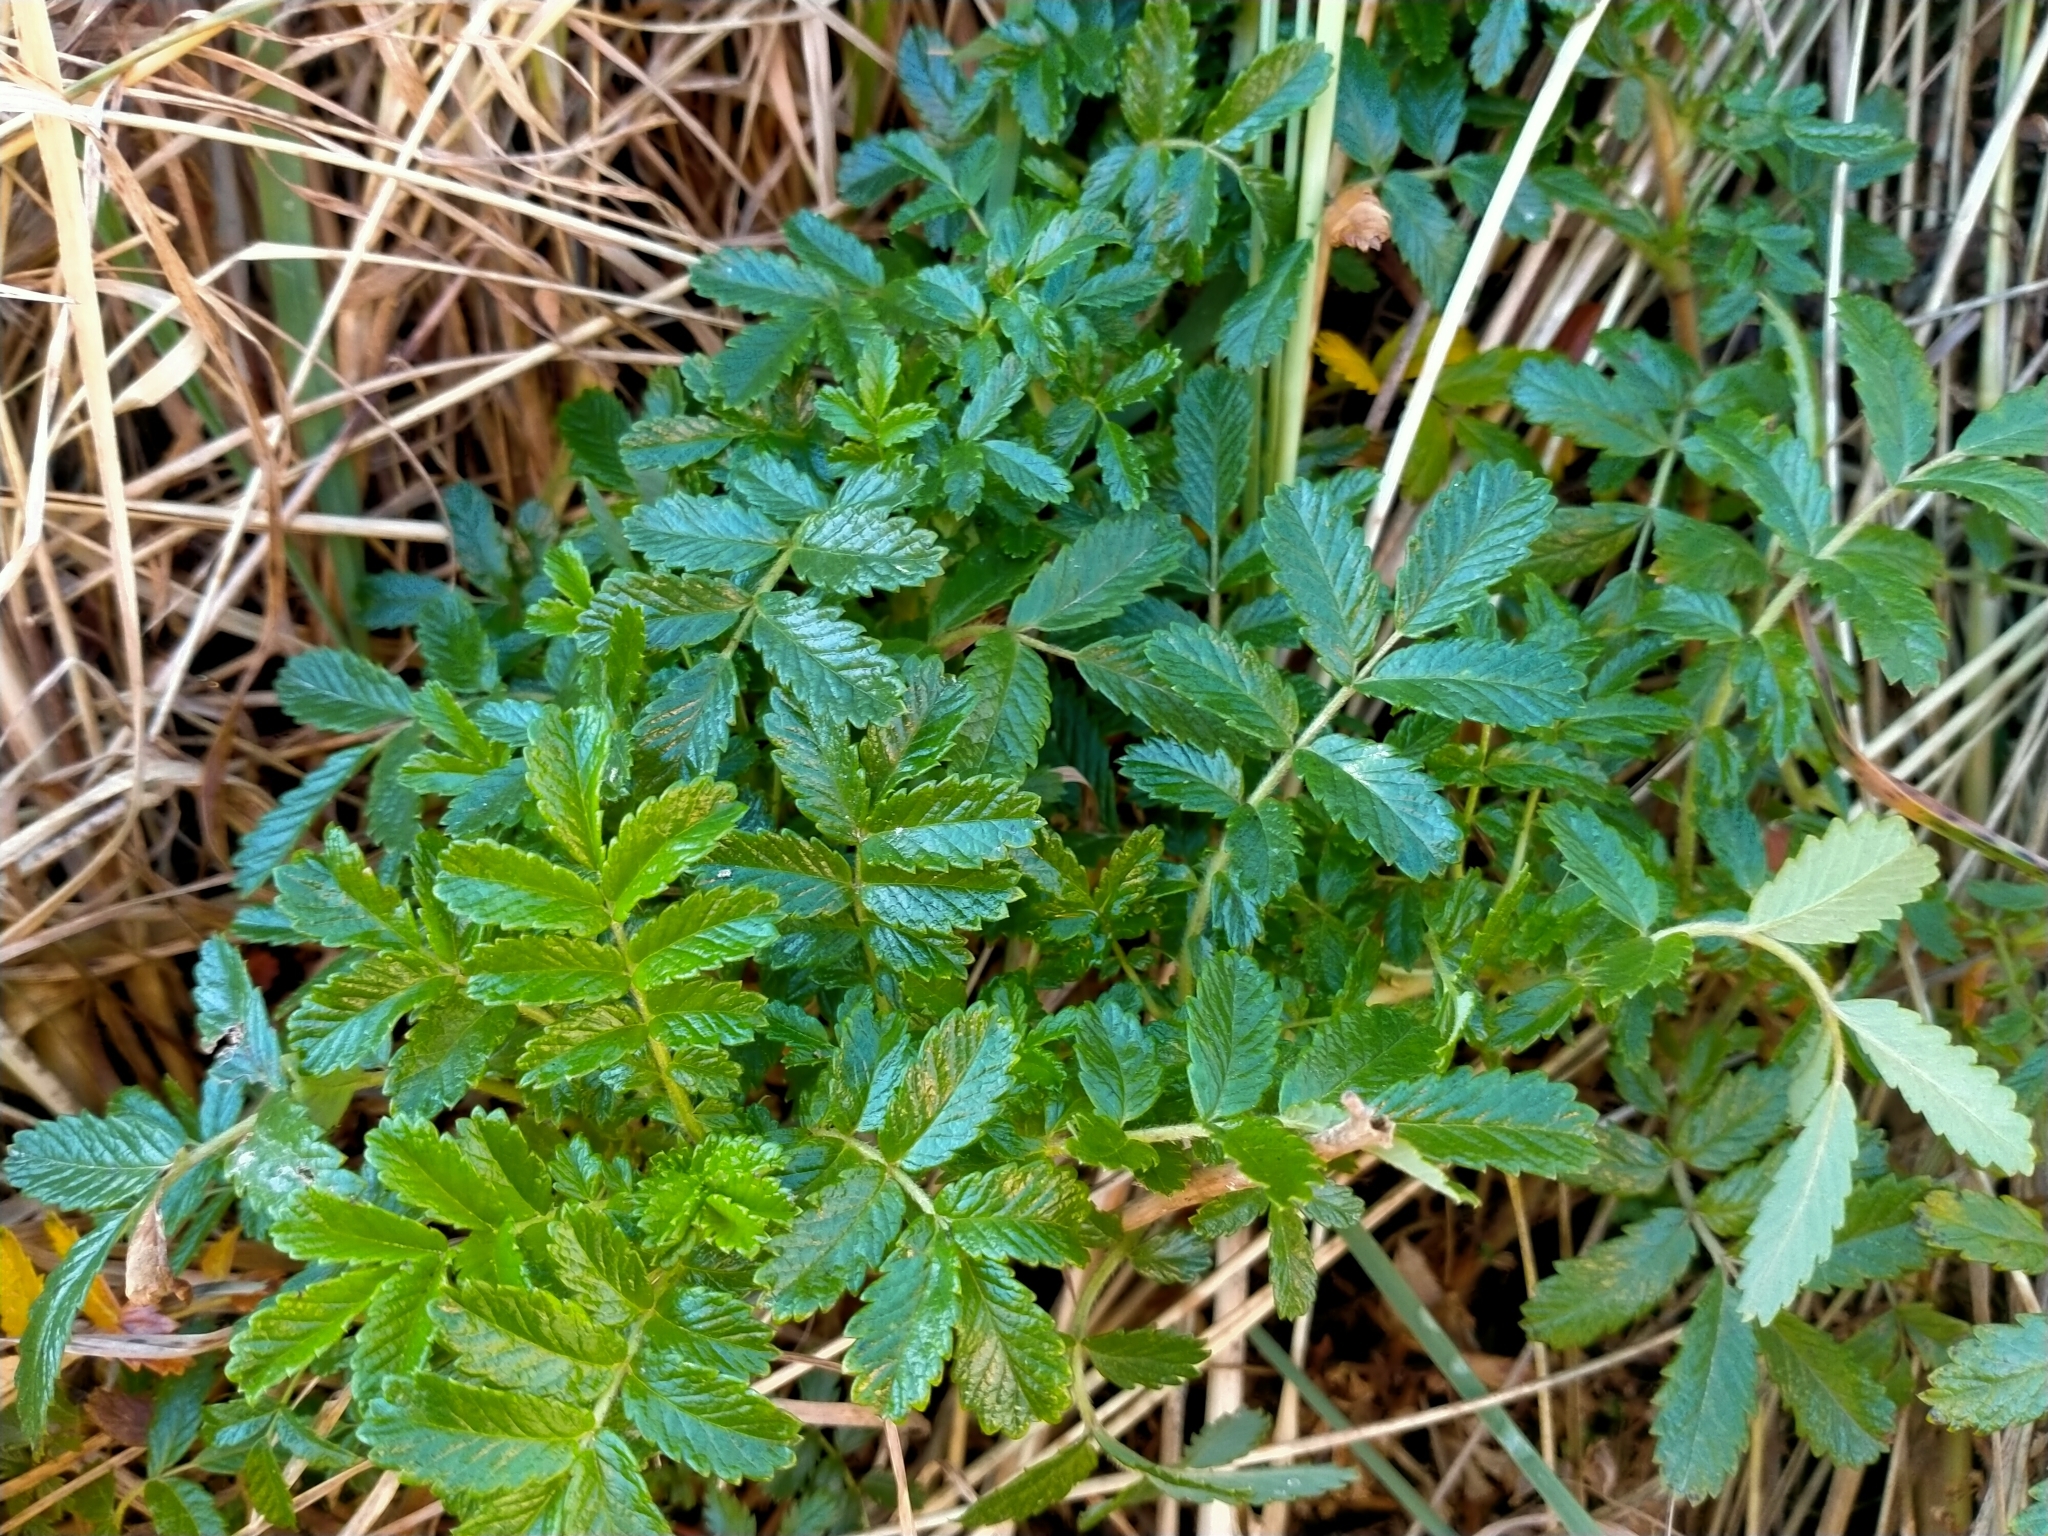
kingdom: Plantae
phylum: Tracheophyta
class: Magnoliopsida
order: Rosales
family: Rosaceae
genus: Acaena
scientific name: Acaena pallida
